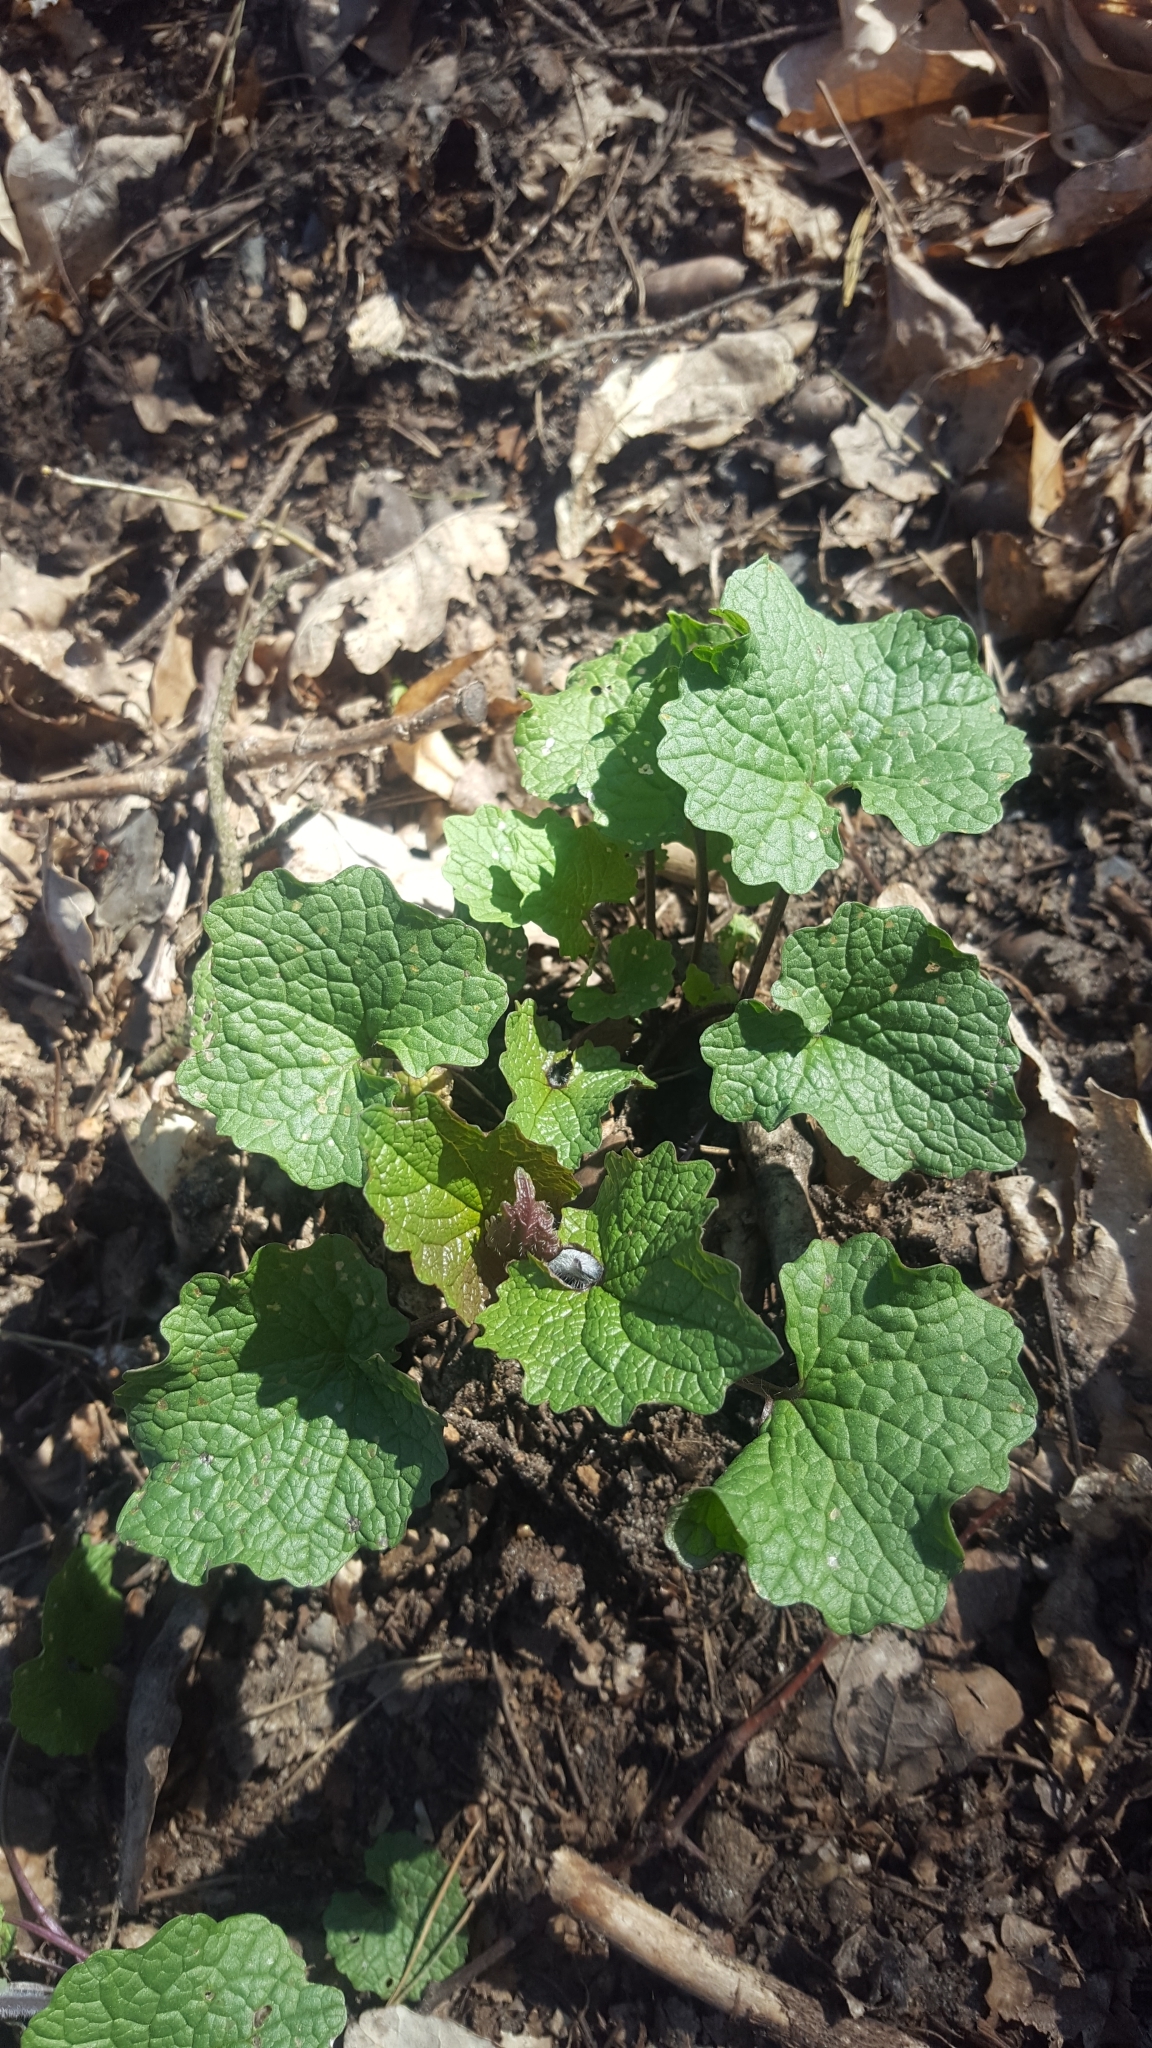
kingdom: Plantae
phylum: Tracheophyta
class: Magnoliopsida
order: Brassicales
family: Brassicaceae
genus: Alliaria
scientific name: Alliaria petiolata
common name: Garlic mustard
